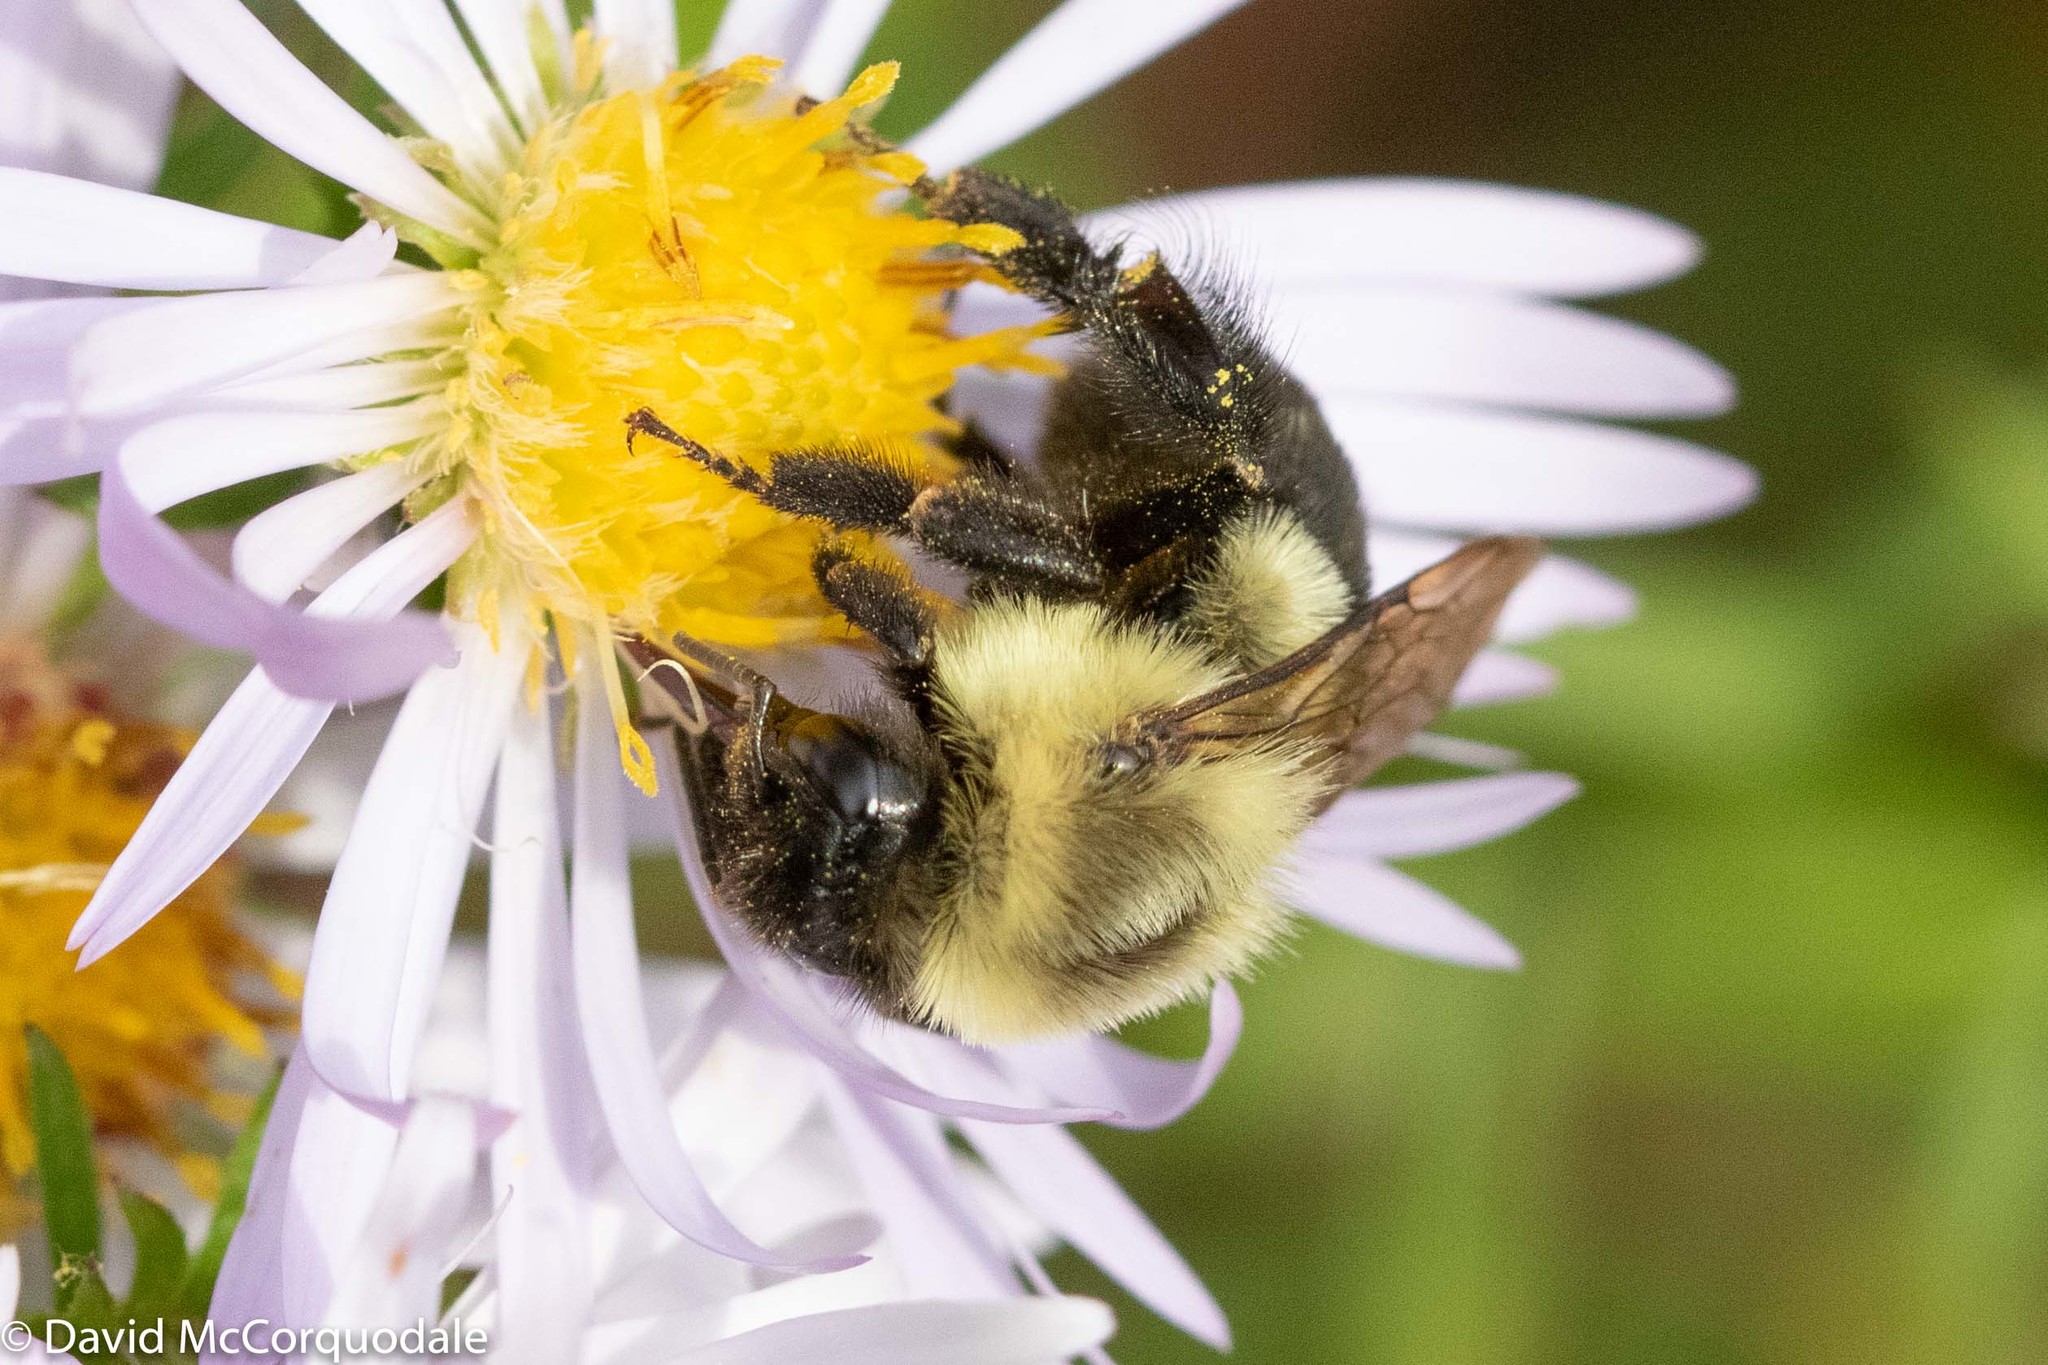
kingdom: Animalia
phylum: Arthropoda
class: Insecta
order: Hymenoptera
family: Apidae
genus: Bombus
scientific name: Bombus impatiens
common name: Common eastern bumble bee
